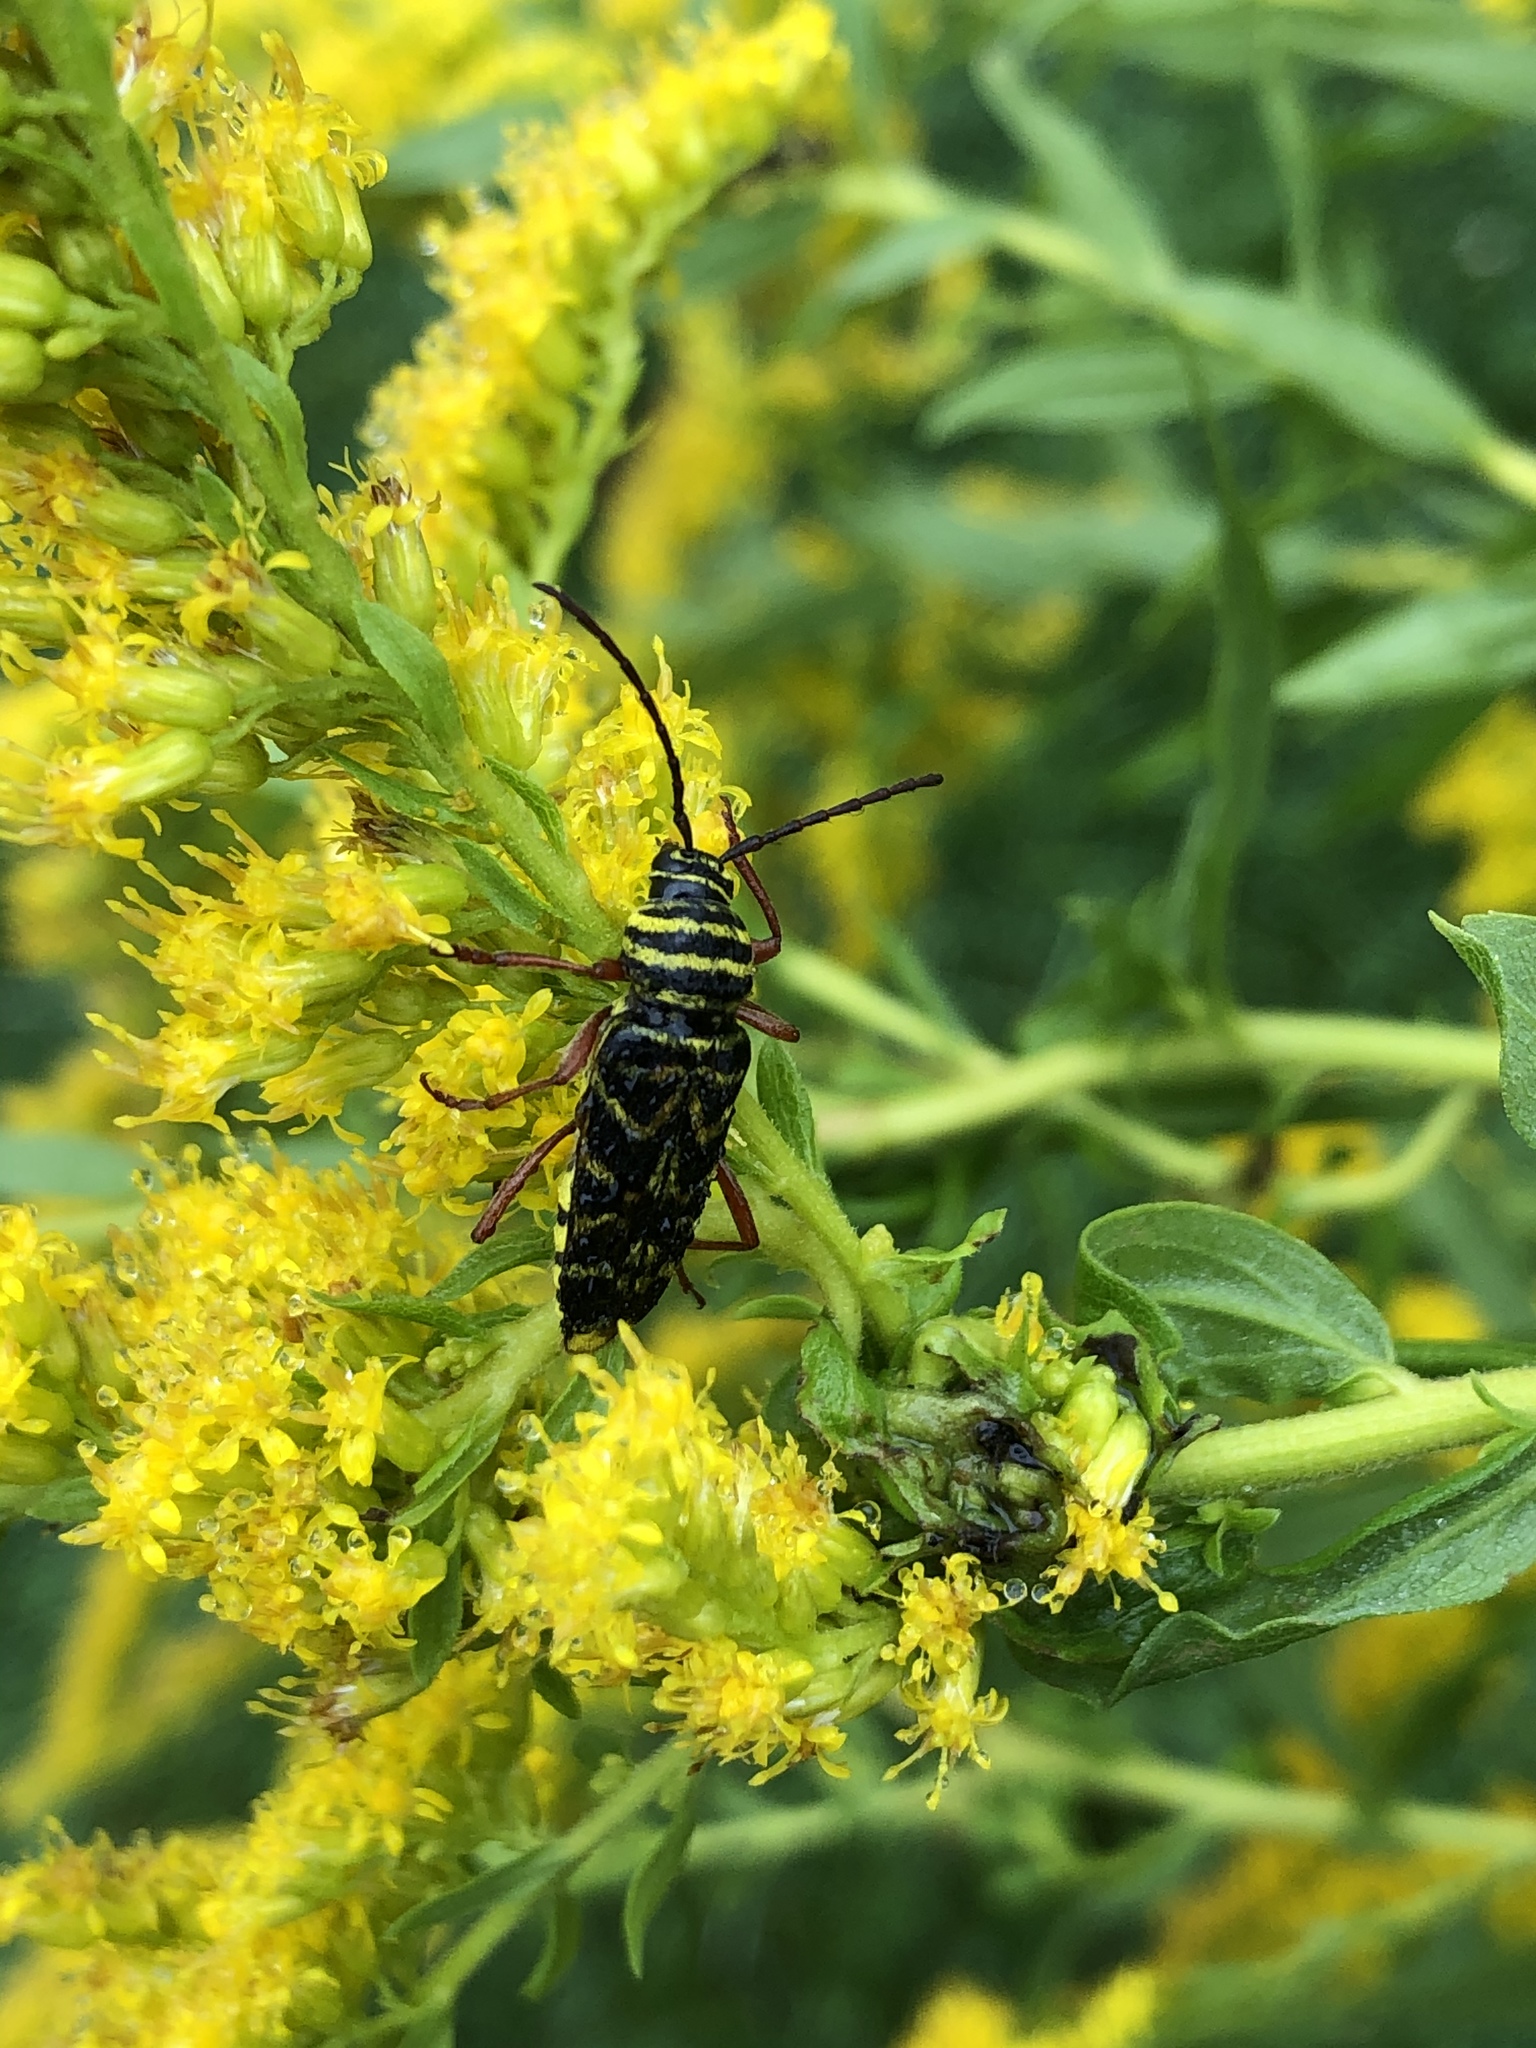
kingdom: Animalia
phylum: Arthropoda
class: Insecta
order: Coleoptera
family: Cerambycidae
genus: Megacyllene
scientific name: Megacyllene robiniae
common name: Locust borer
